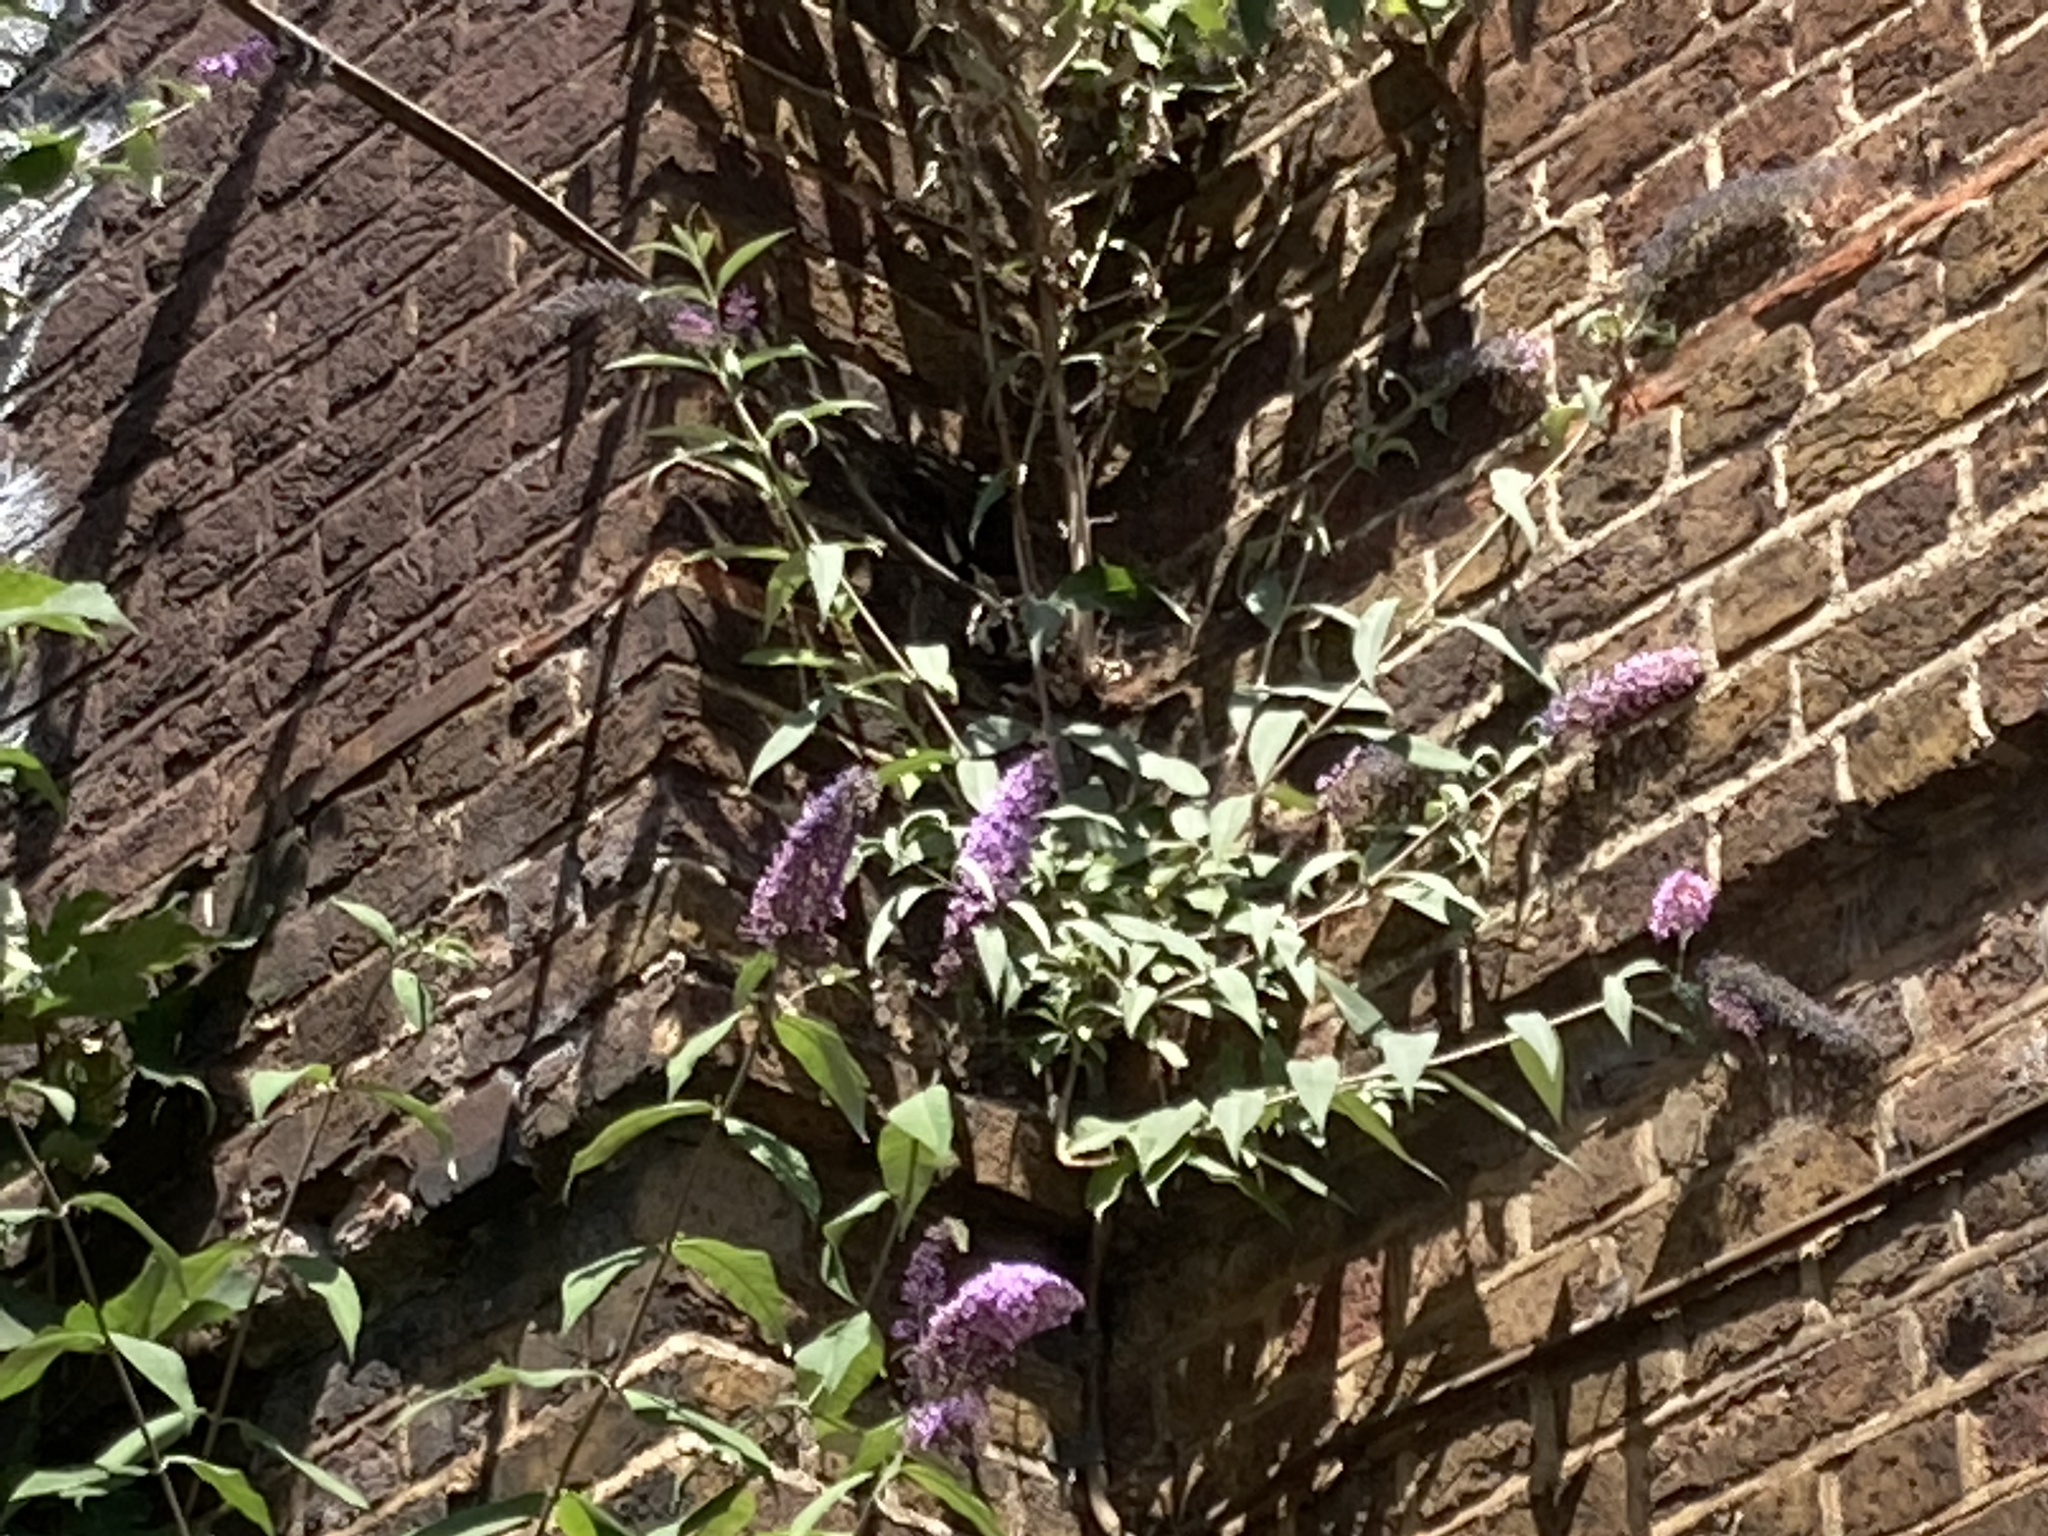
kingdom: Plantae
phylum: Tracheophyta
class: Magnoliopsida
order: Lamiales
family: Scrophulariaceae
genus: Buddleja
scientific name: Buddleja davidii
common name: Butterfly-bush
